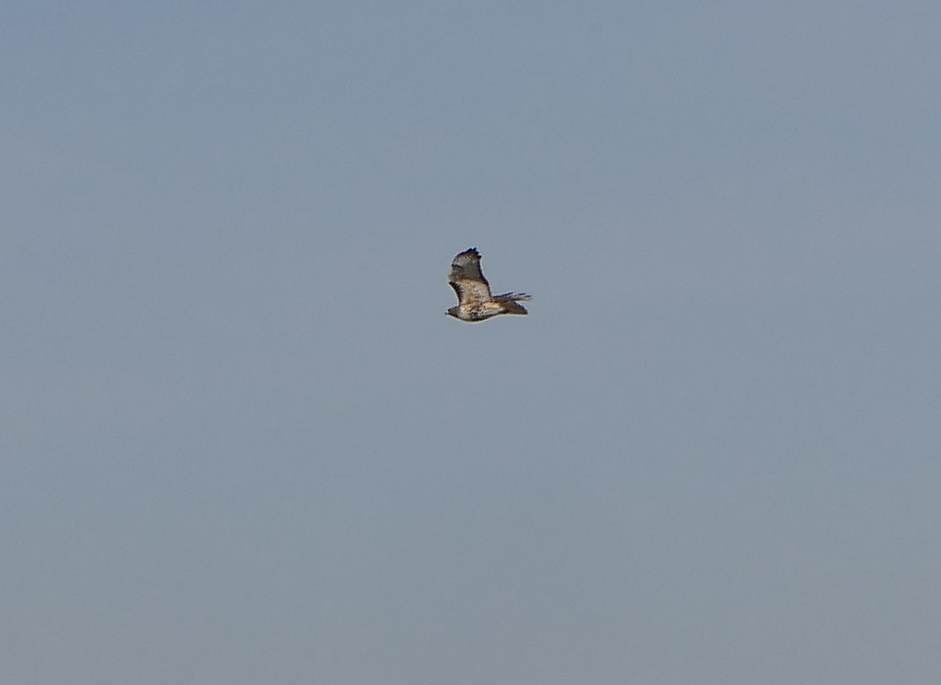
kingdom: Animalia
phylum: Chordata
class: Aves
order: Accipitriformes
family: Accipitridae
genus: Buteo
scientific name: Buteo jamaicensis
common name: Red-tailed hawk
